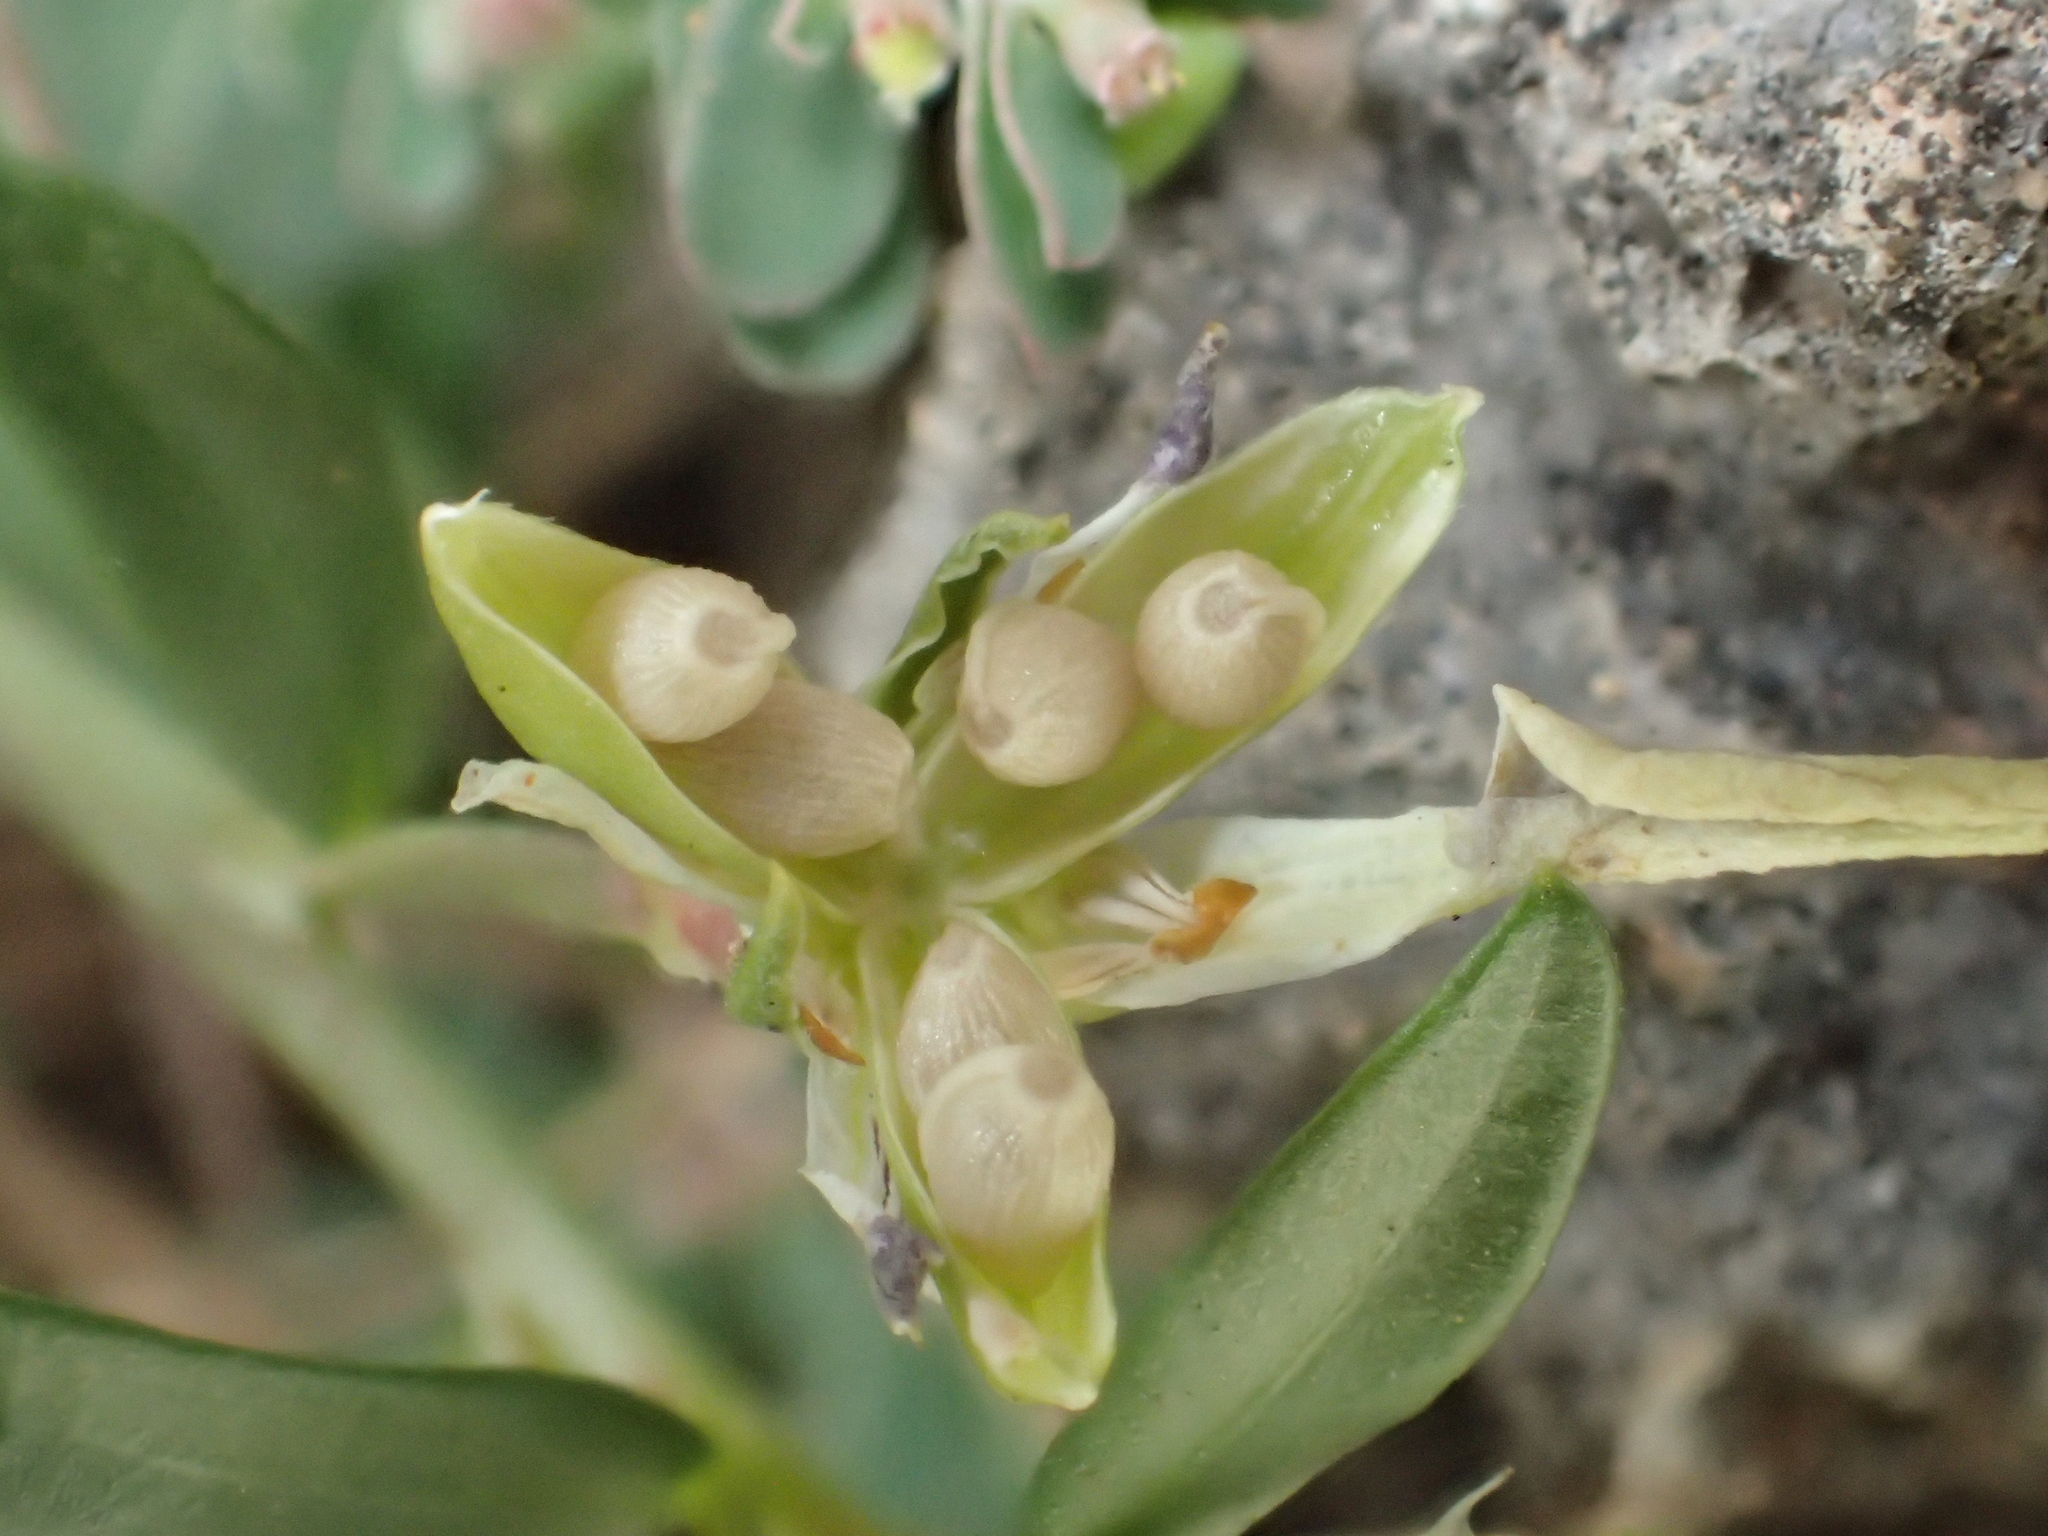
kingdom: Plantae
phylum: Tracheophyta
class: Magnoliopsida
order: Malpighiales
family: Violaceae
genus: Pigea
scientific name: Pigea enneasperma
